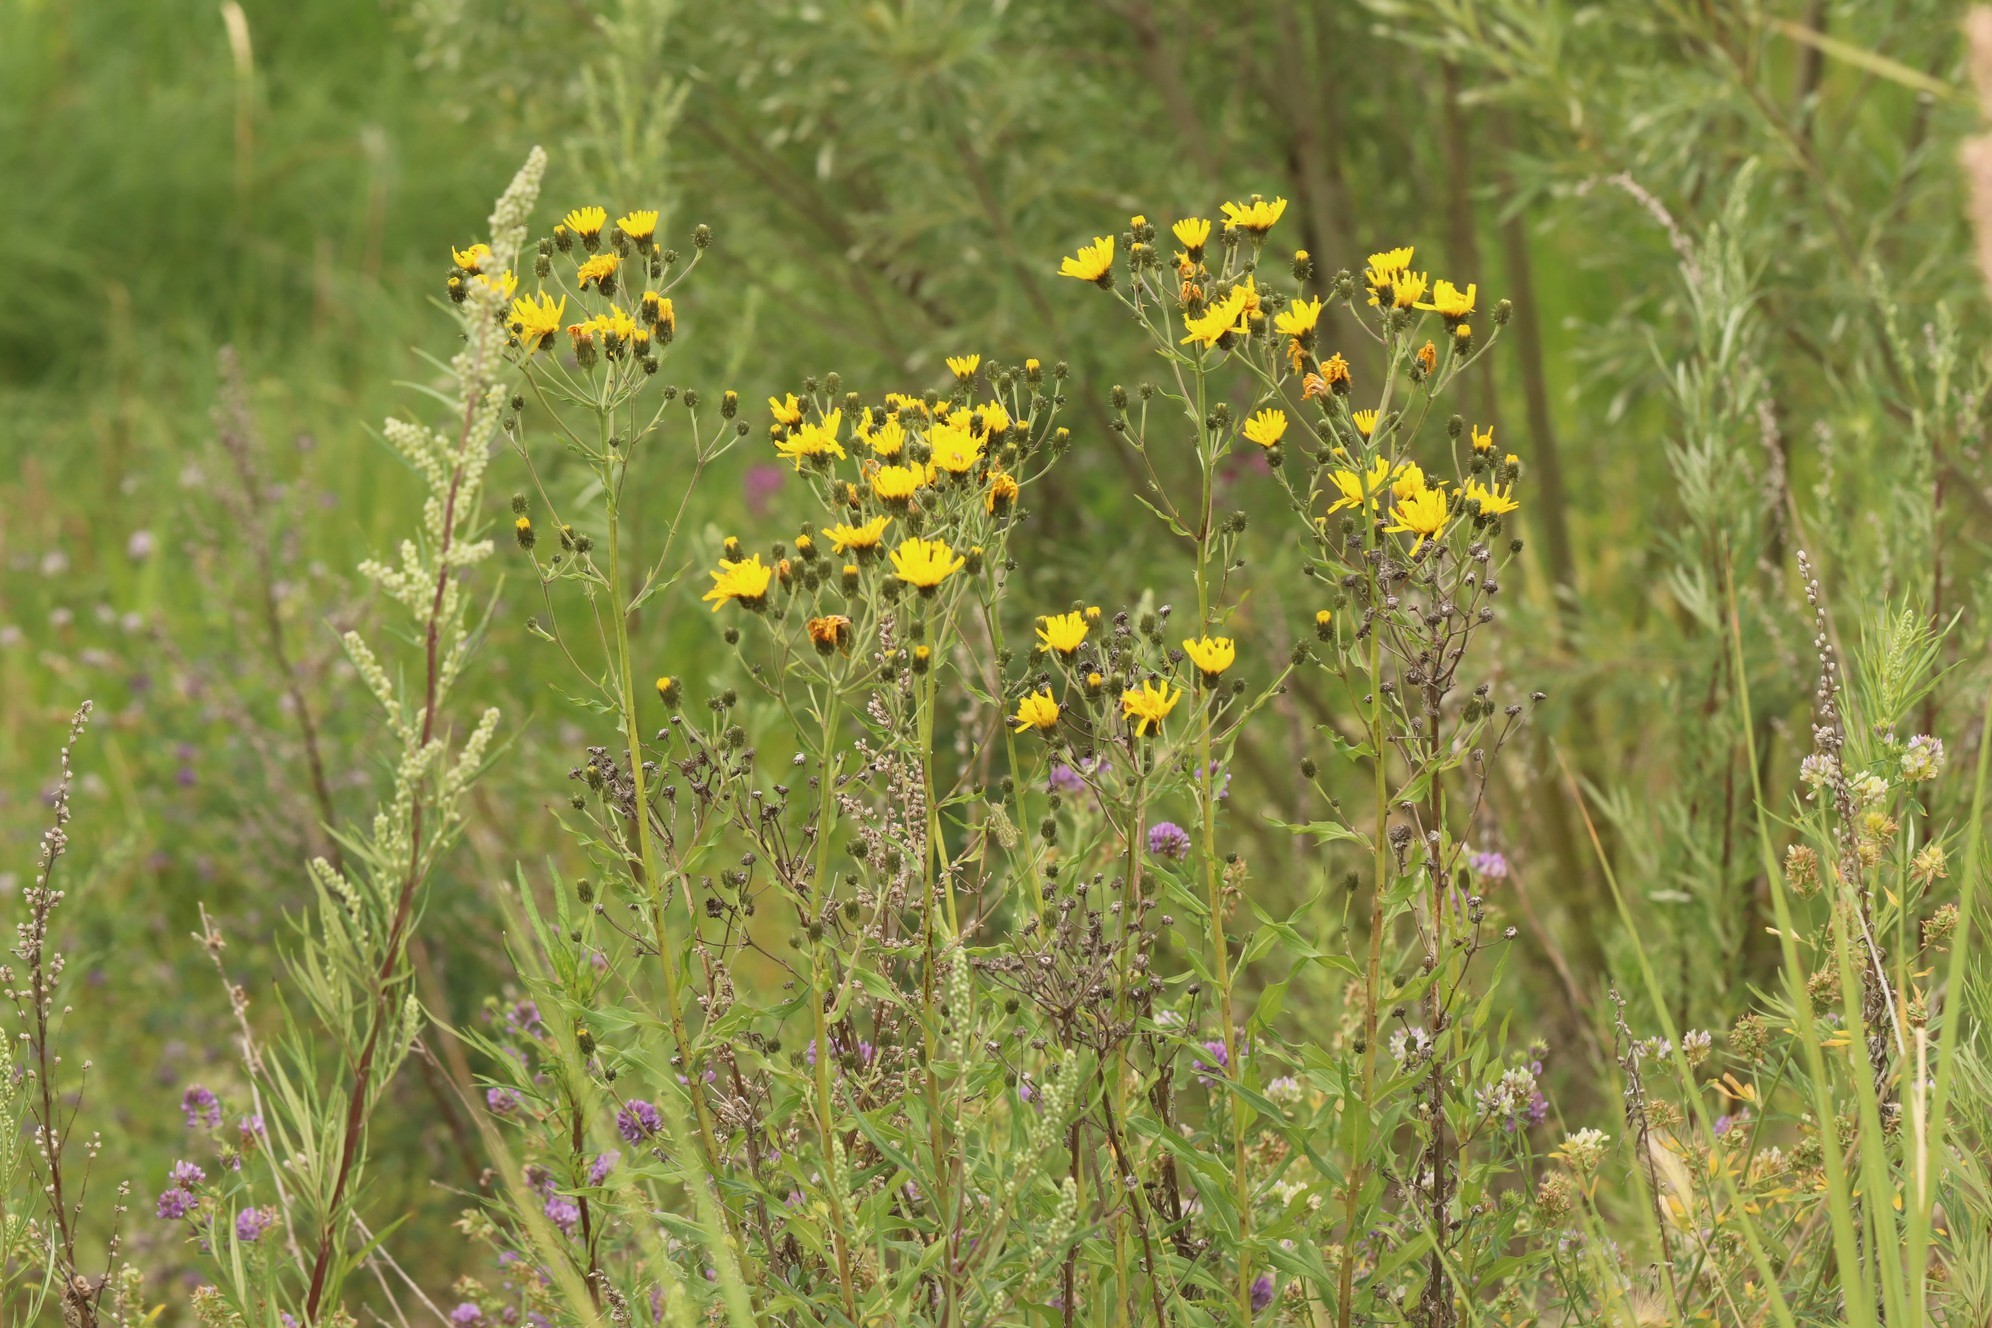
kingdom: Plantae
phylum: Tracheophyta
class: Magnoliopsida
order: Asterales
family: Asteraceae
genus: Hieracium
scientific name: Hieracium umbellatum
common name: Northern hawkweed
